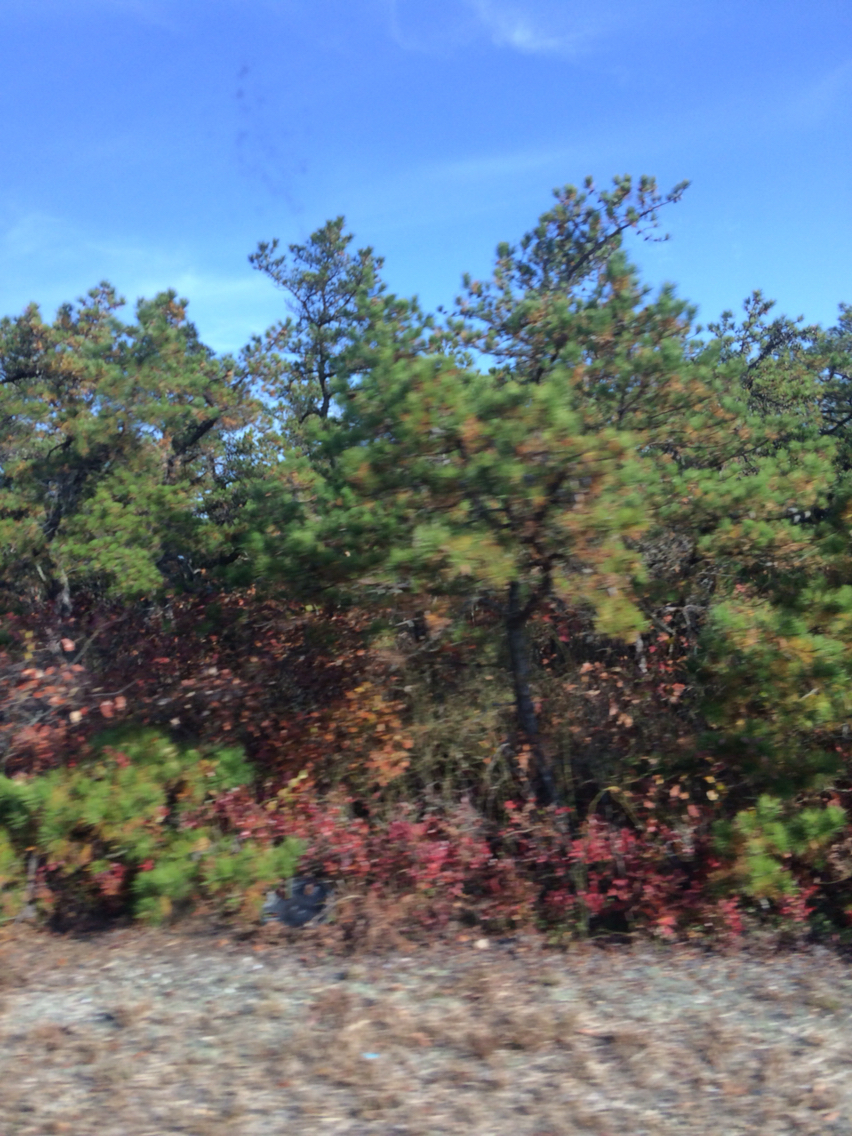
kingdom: Plantae
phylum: Tracheophyta
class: Pinopsida
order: Pinales
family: Pinaceae
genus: Pinus
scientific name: Pinus rigida
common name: Pitch pine
